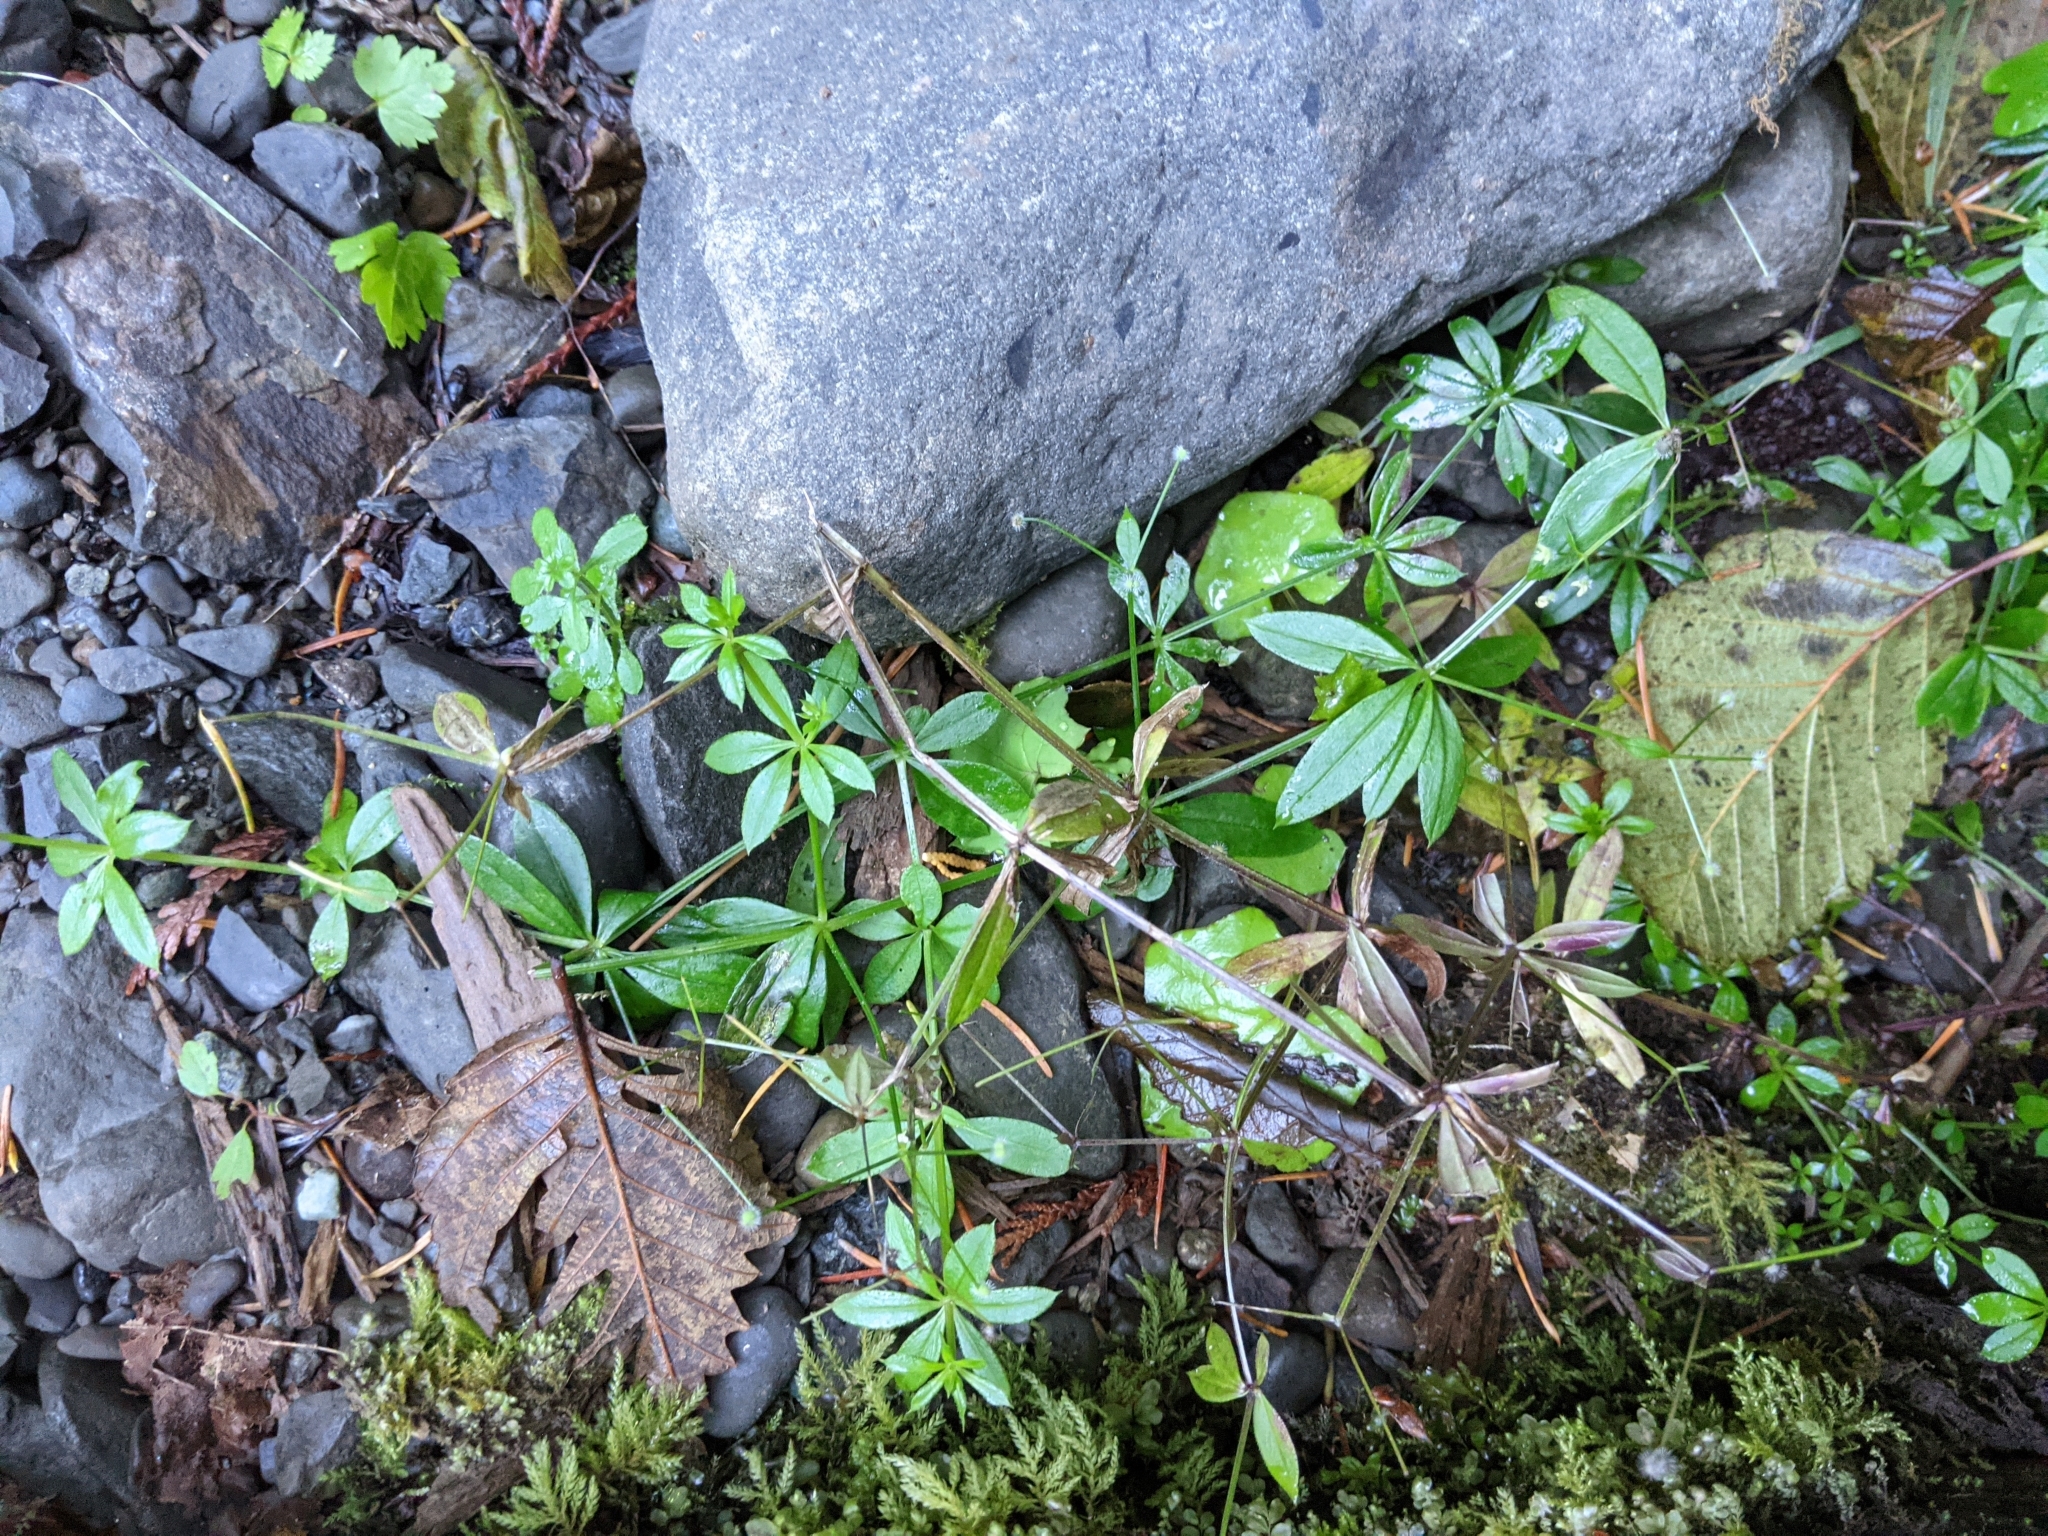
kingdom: Plantae
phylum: Tracheophyta
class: Magnoliopsida
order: Gentianales
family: Rubiaceae
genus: Galium
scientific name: Galium triflorum
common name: Fragrant bedstraw
